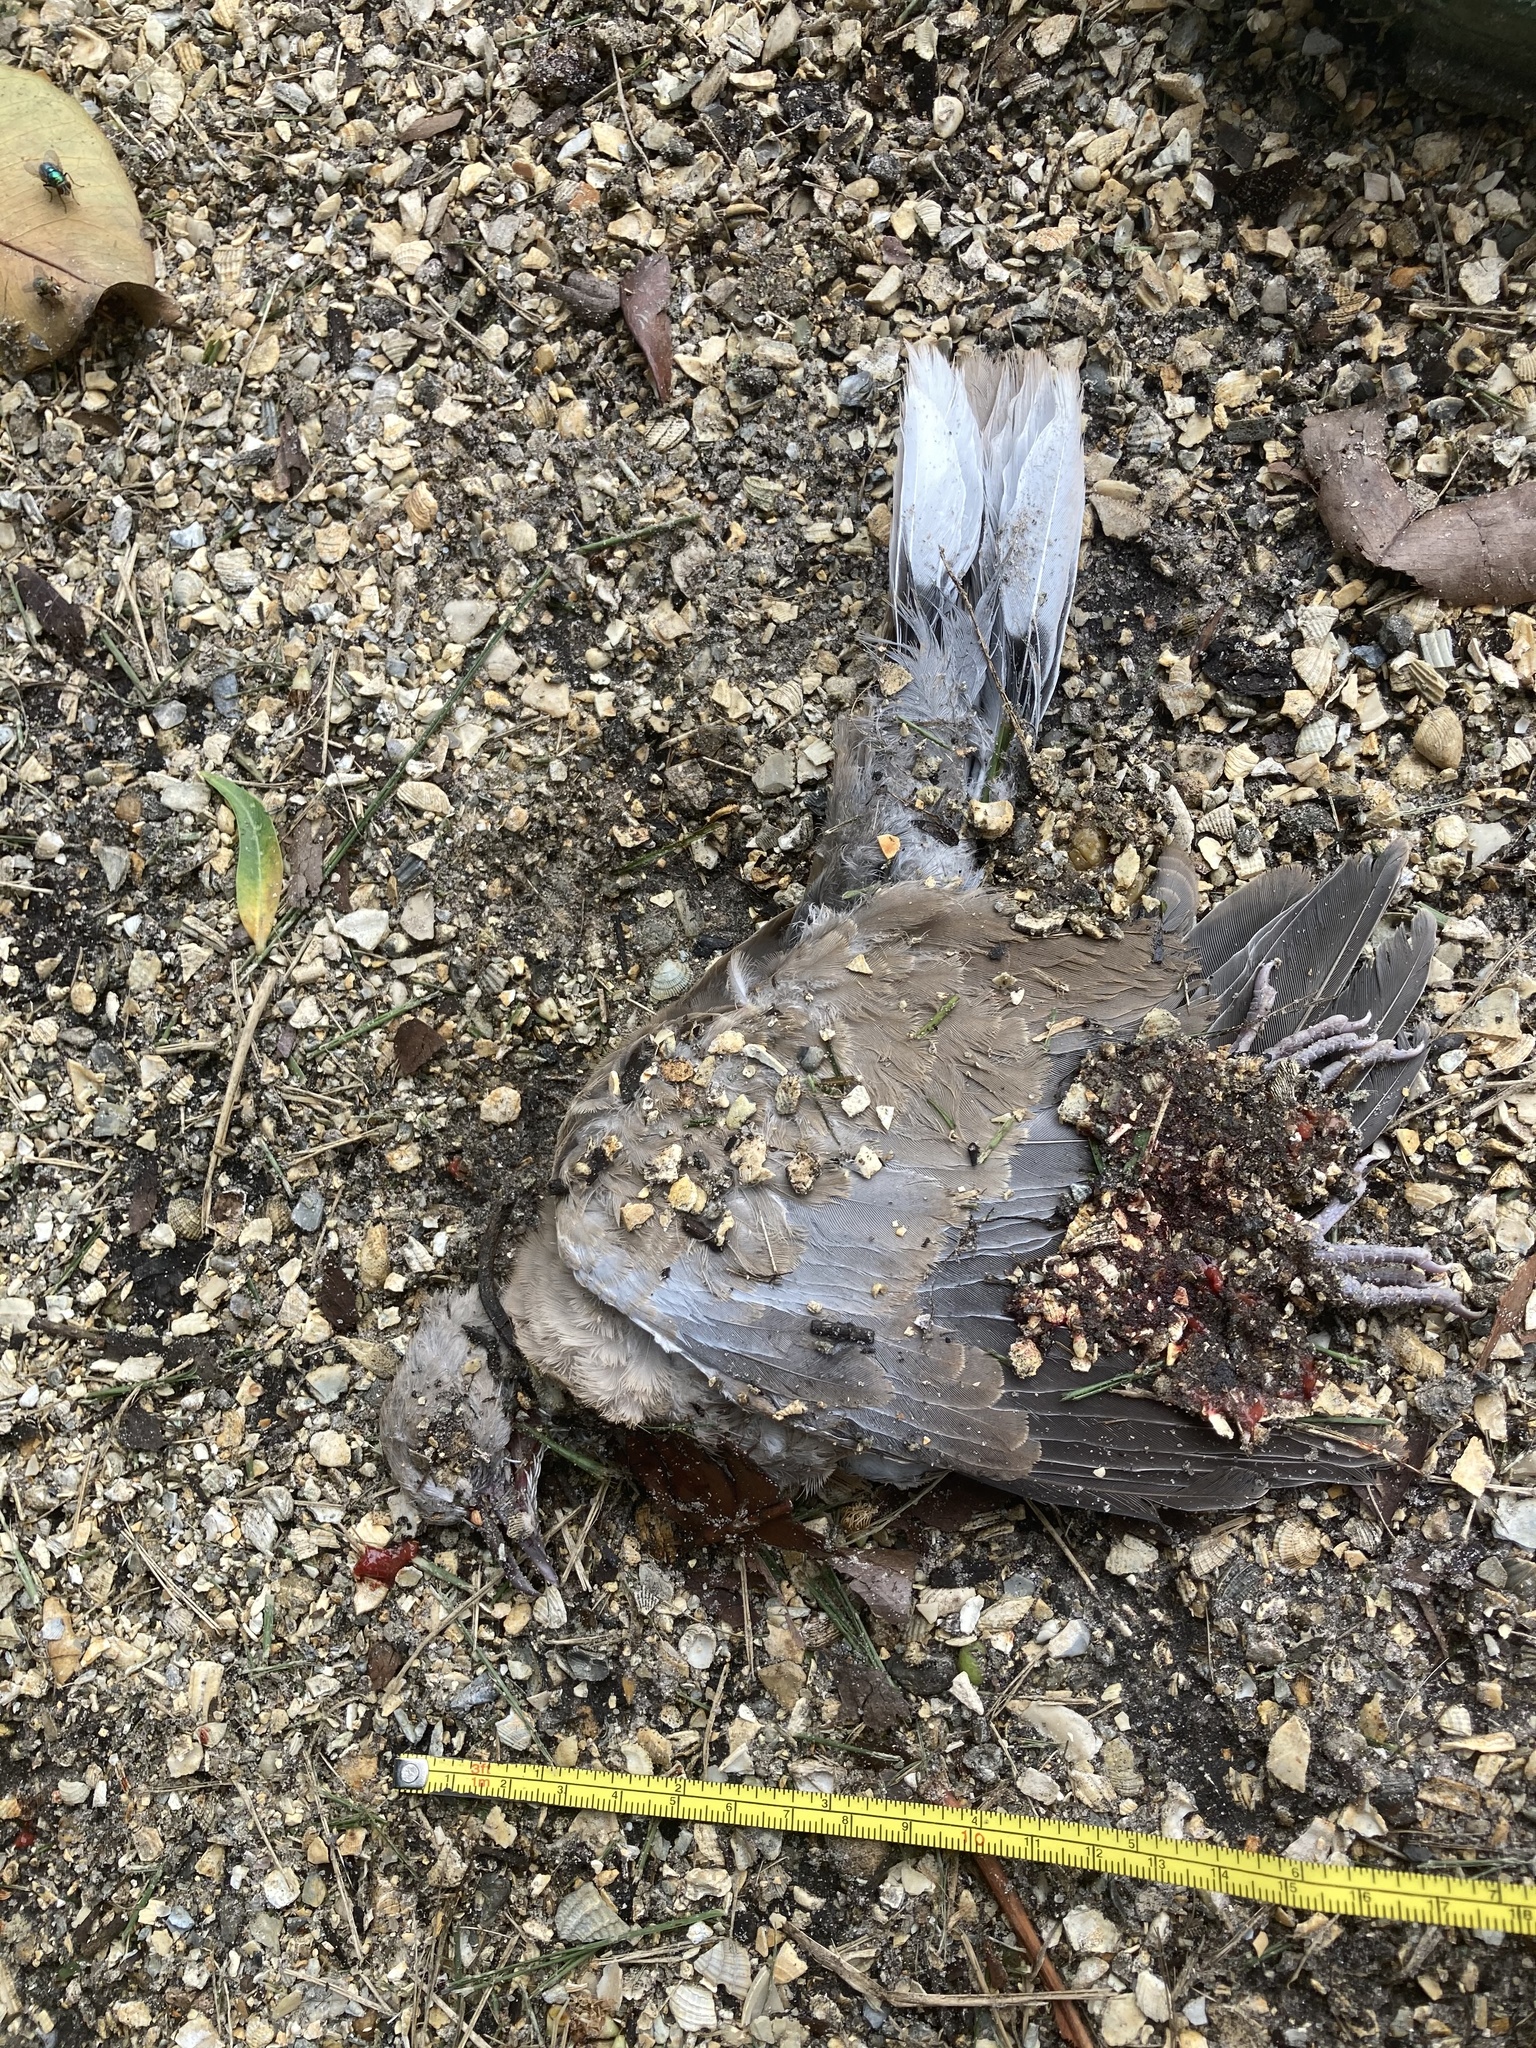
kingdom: Animalia
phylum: Chordata
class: Aves
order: Columbiformes
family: Columbidae
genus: Streptopelia
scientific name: Streptopelia decaocto
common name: Eurasian collared dove
